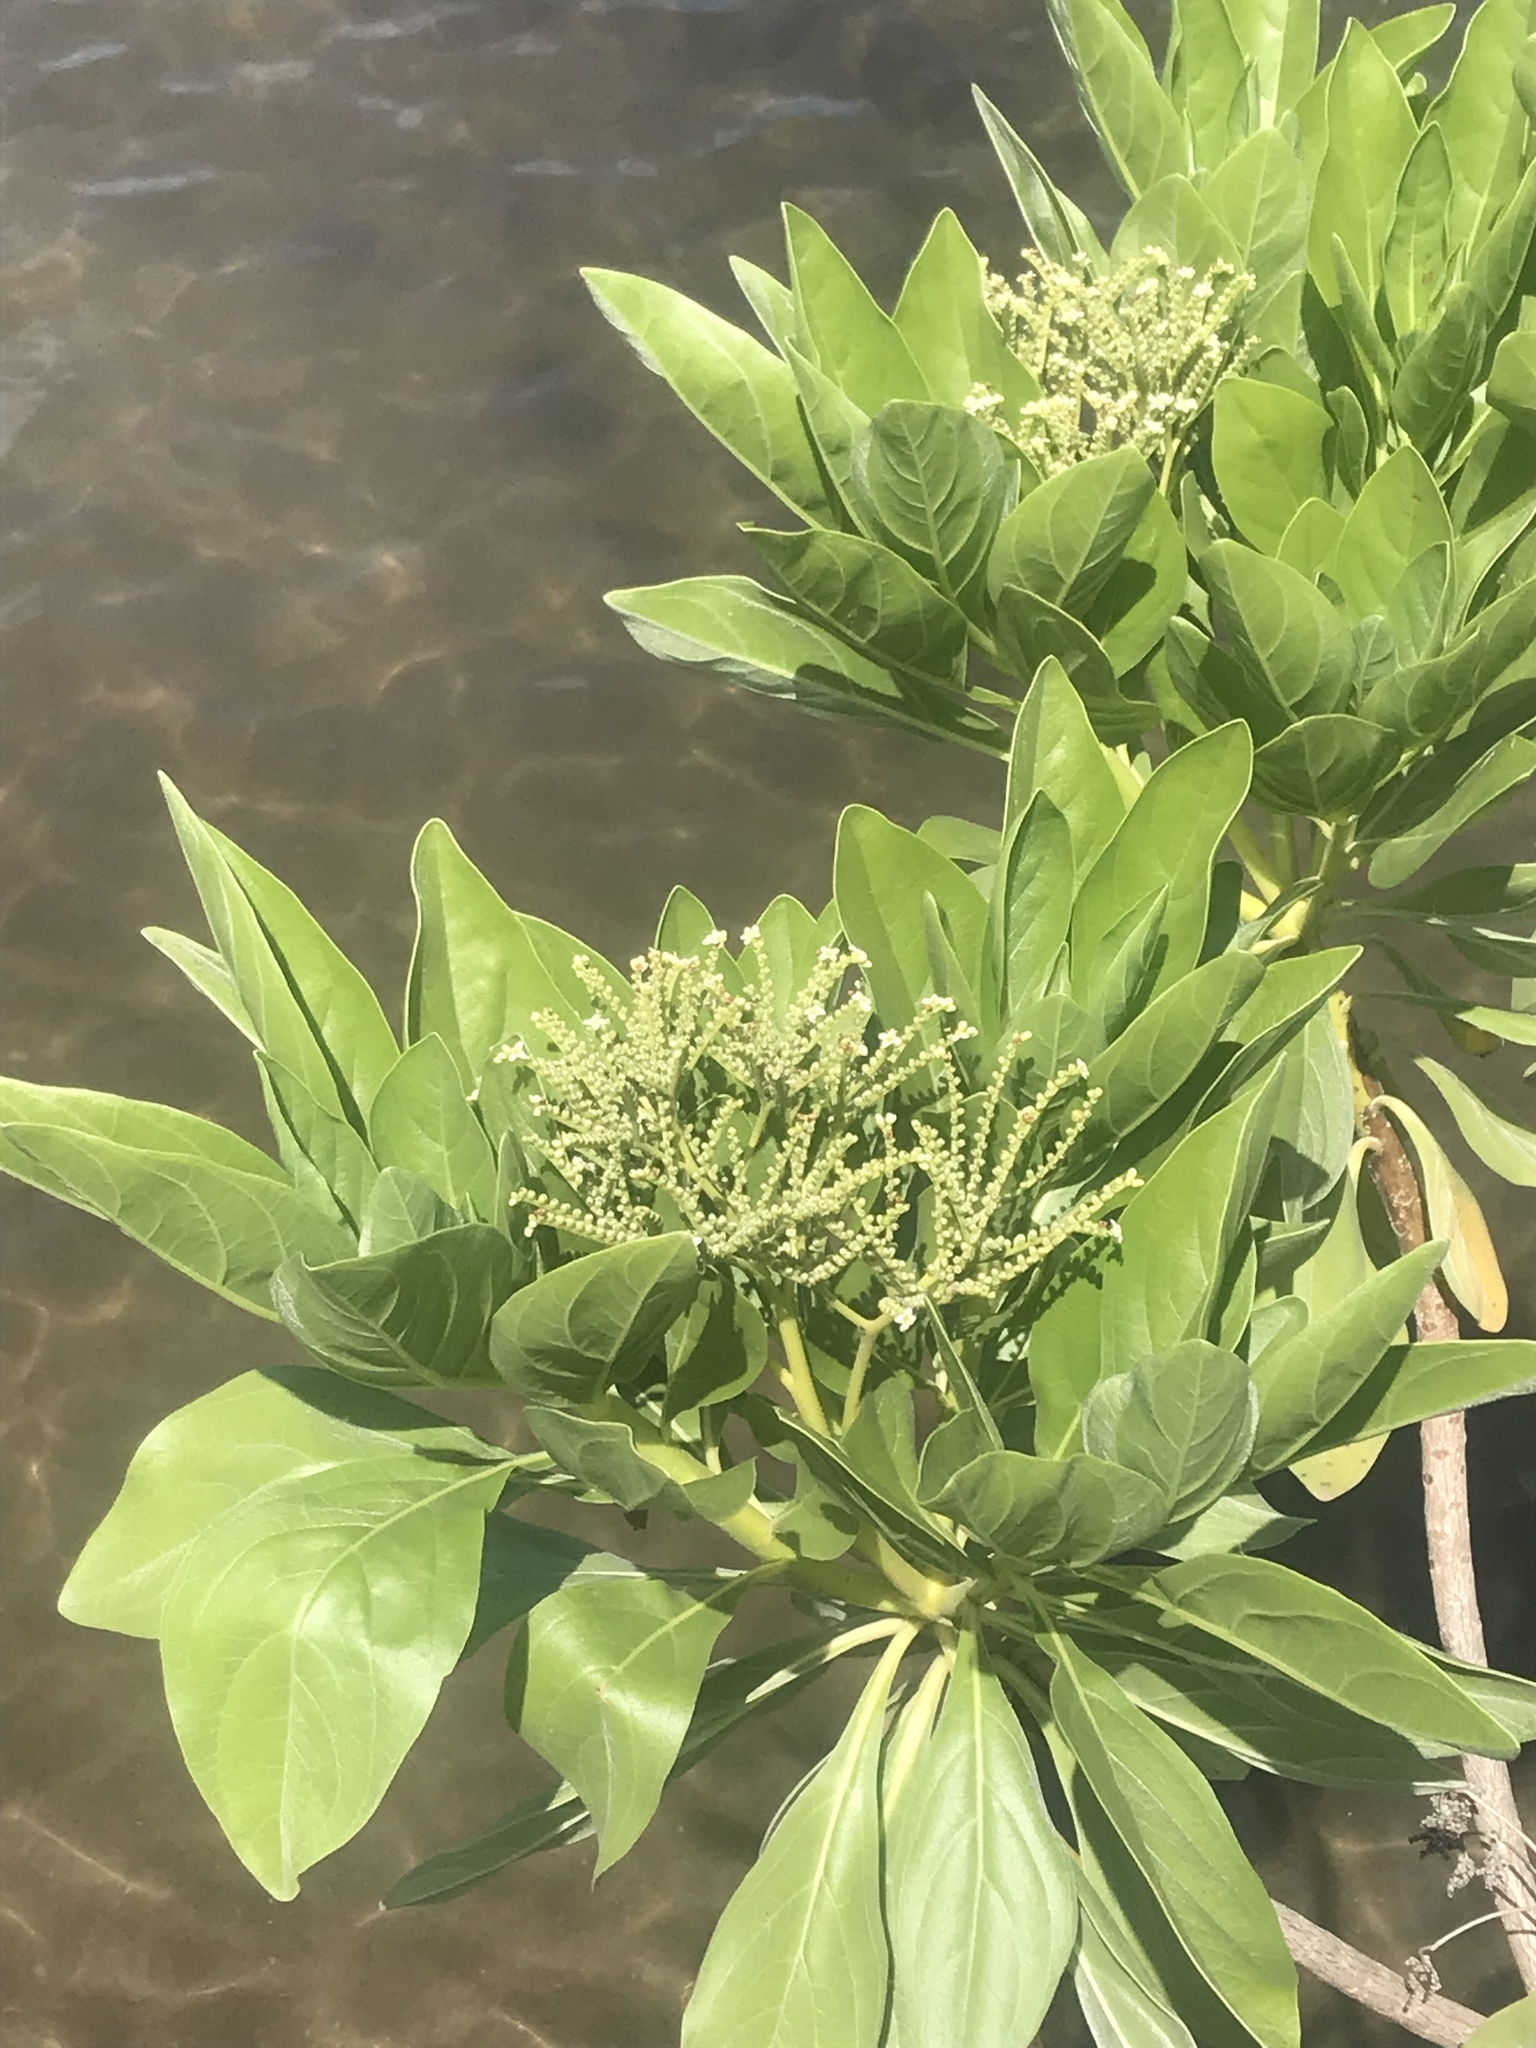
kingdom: Plantae
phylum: Tracheophyta
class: Magnoliopsida
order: Boraginales
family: Heliotropiaceae
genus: Heliotropium
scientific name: Heliotropium velutinum
